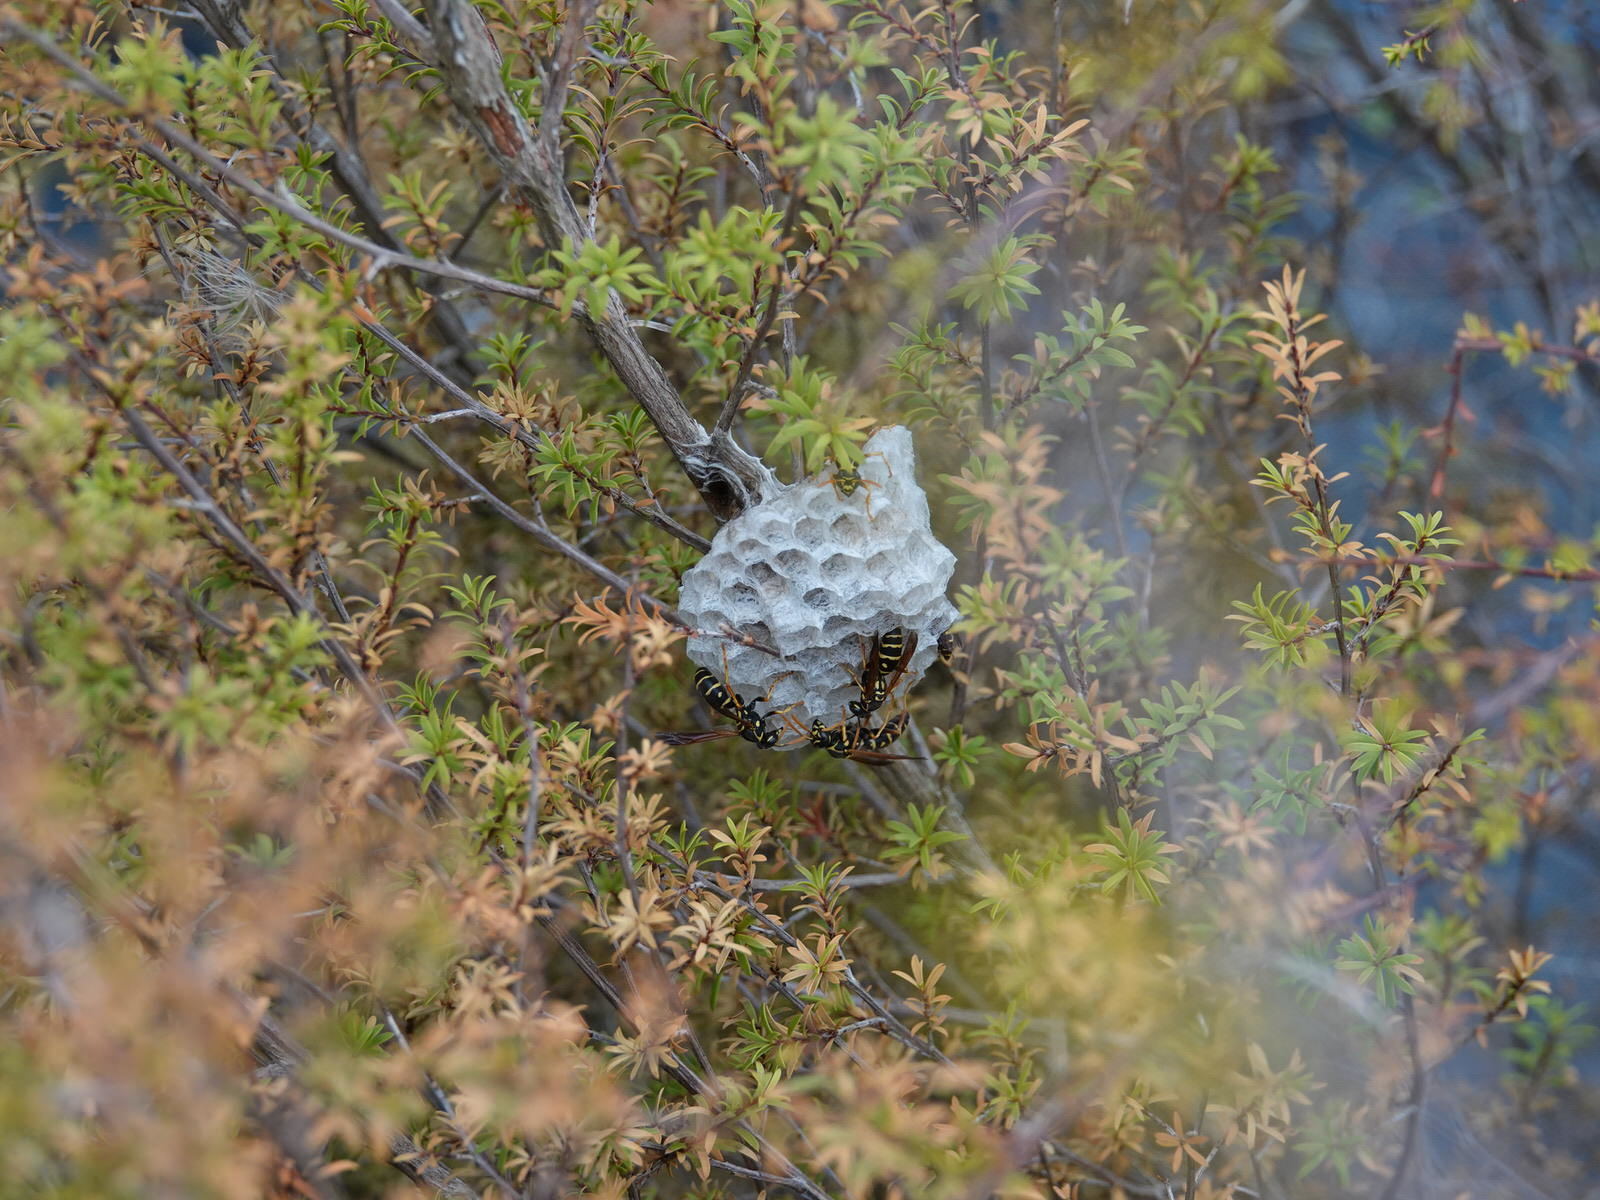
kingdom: Animalia
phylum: Arthropoda
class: Insecta
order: Hymenoptera
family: Eumenidae
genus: Polistes
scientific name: Polistes chinensis
